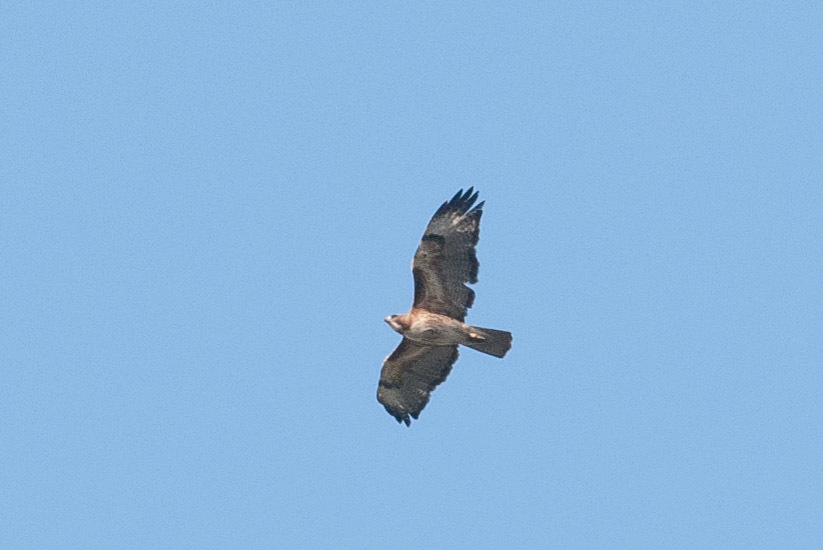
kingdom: Animalia
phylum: Chordata
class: Aves
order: Accipitriformes
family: Accipitridae
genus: Buteo
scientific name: Buteo jamaicensis
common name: Red-tailed hawk
